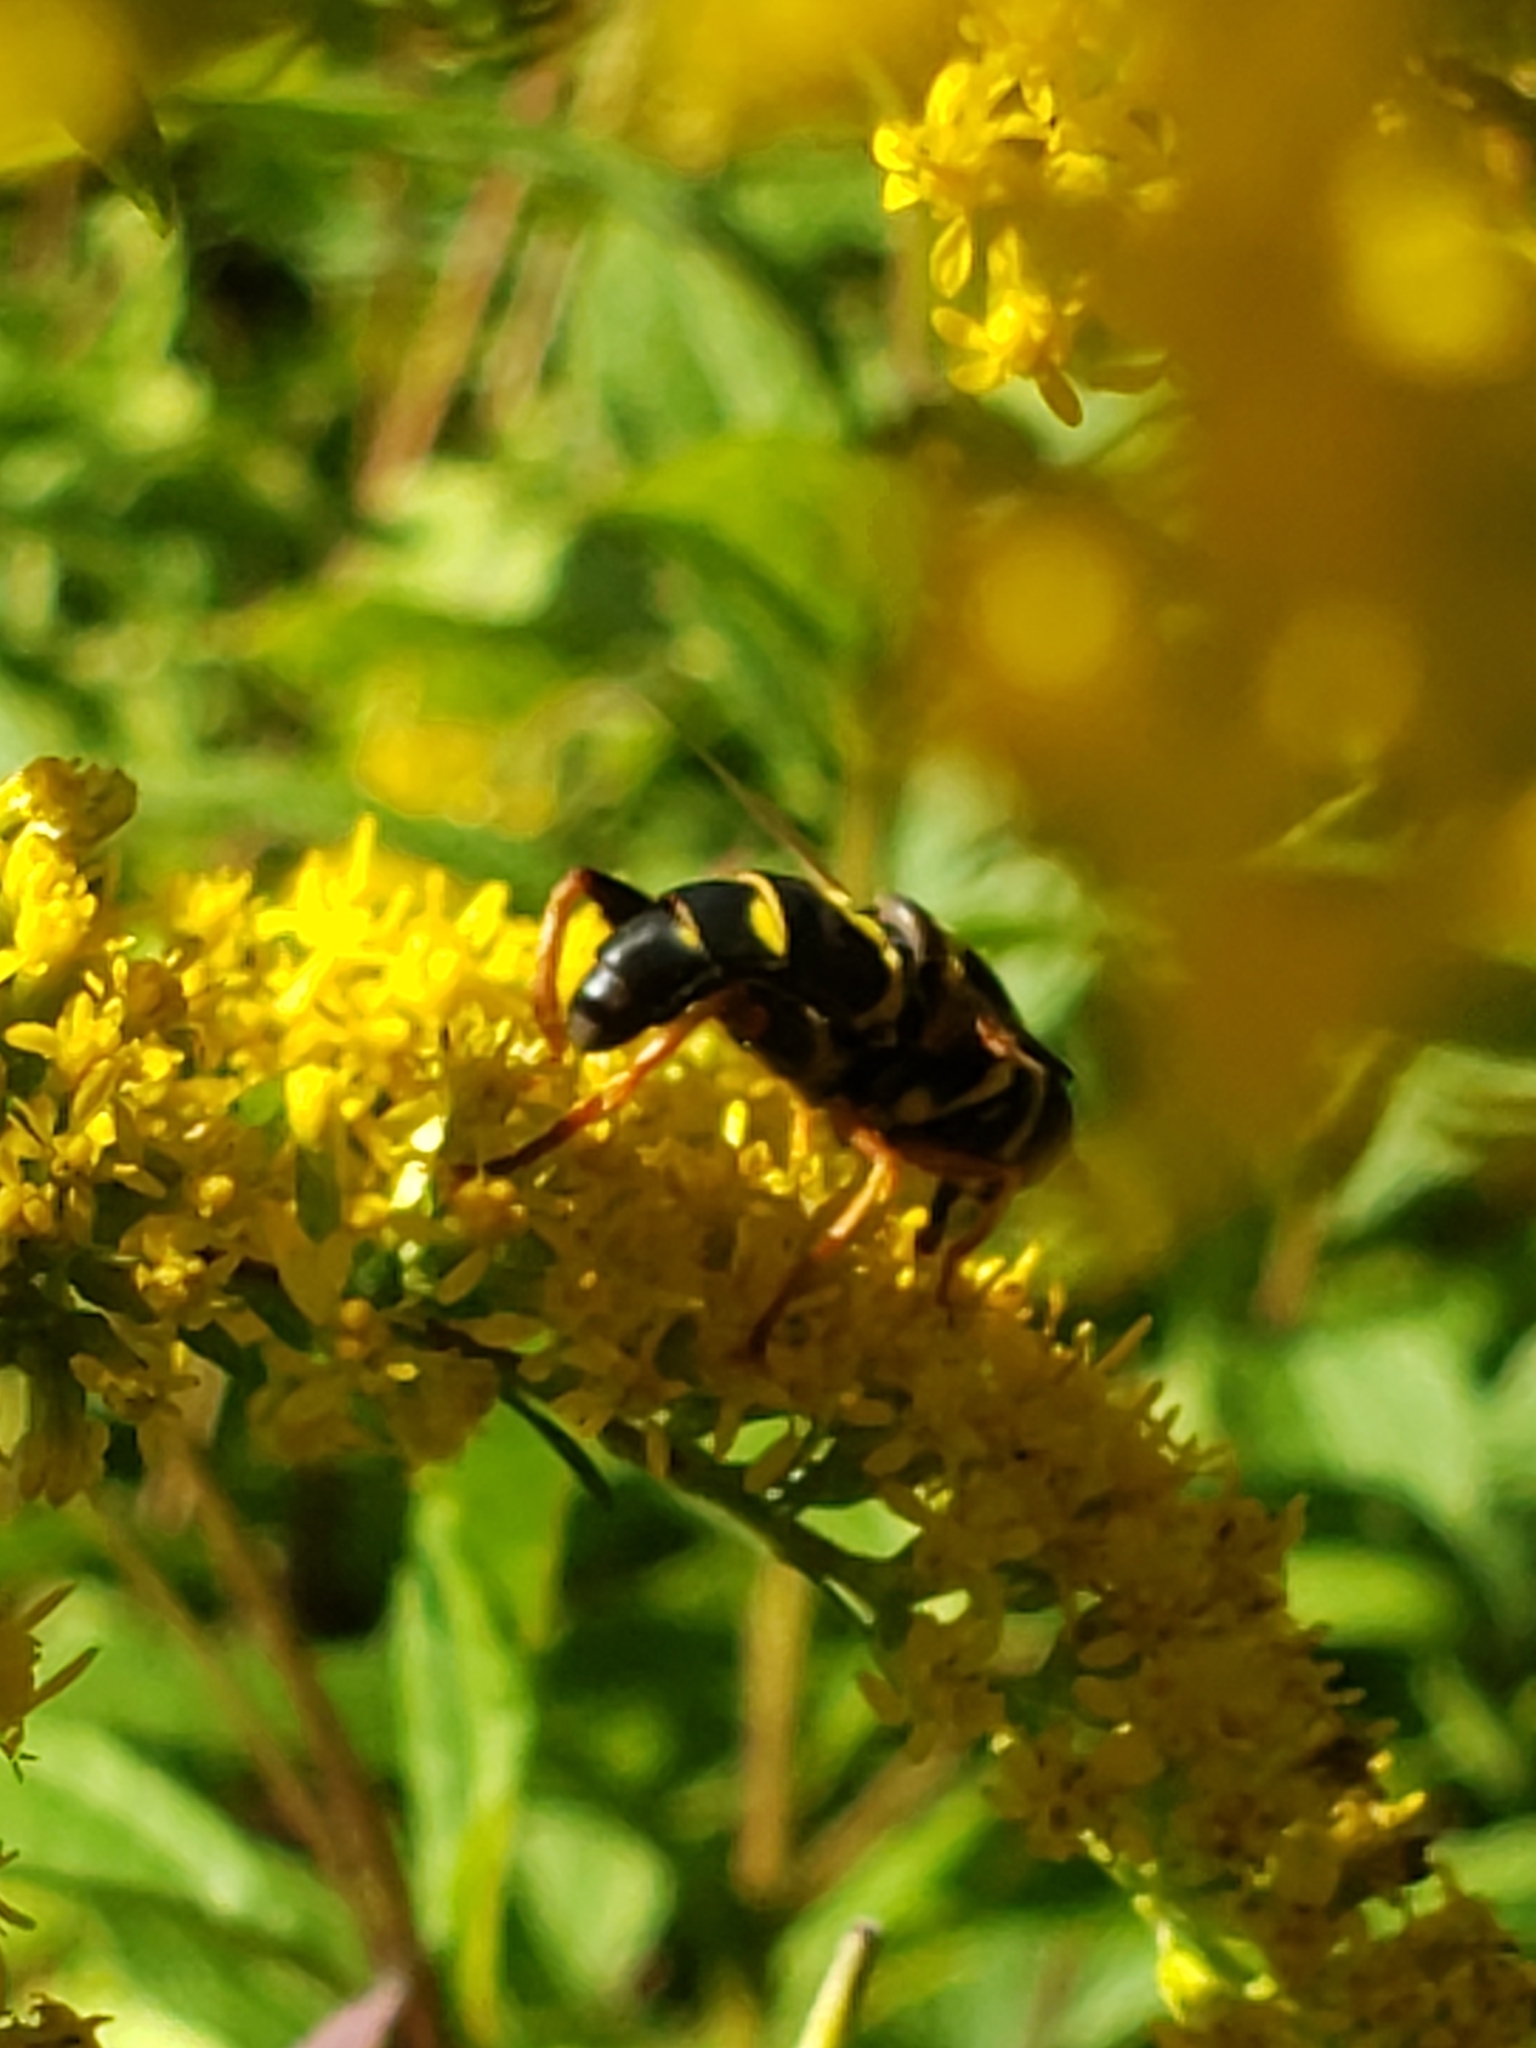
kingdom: Animalia
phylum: Arthropoda
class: Insecta
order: Diptera
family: Syrphidae
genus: Meromacrus
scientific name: Meromacrus acutus
